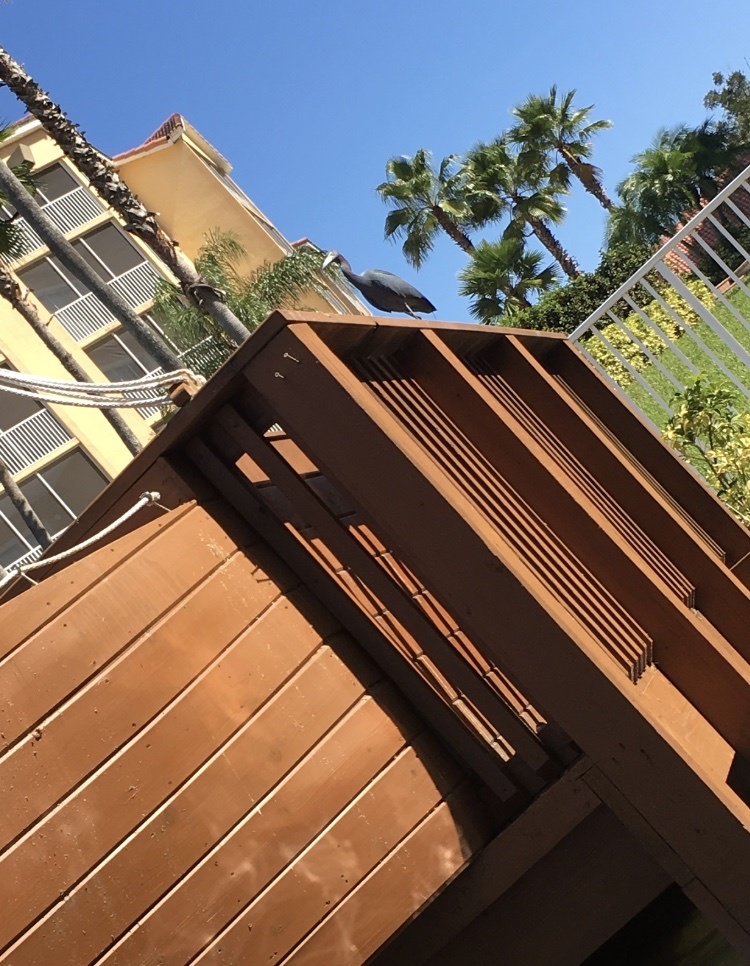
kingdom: Animalia
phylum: Chordata
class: Aves
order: Pelecaniformes
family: Ardeidae
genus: Egretta
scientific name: Egretta caerulea
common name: Little blue heron
